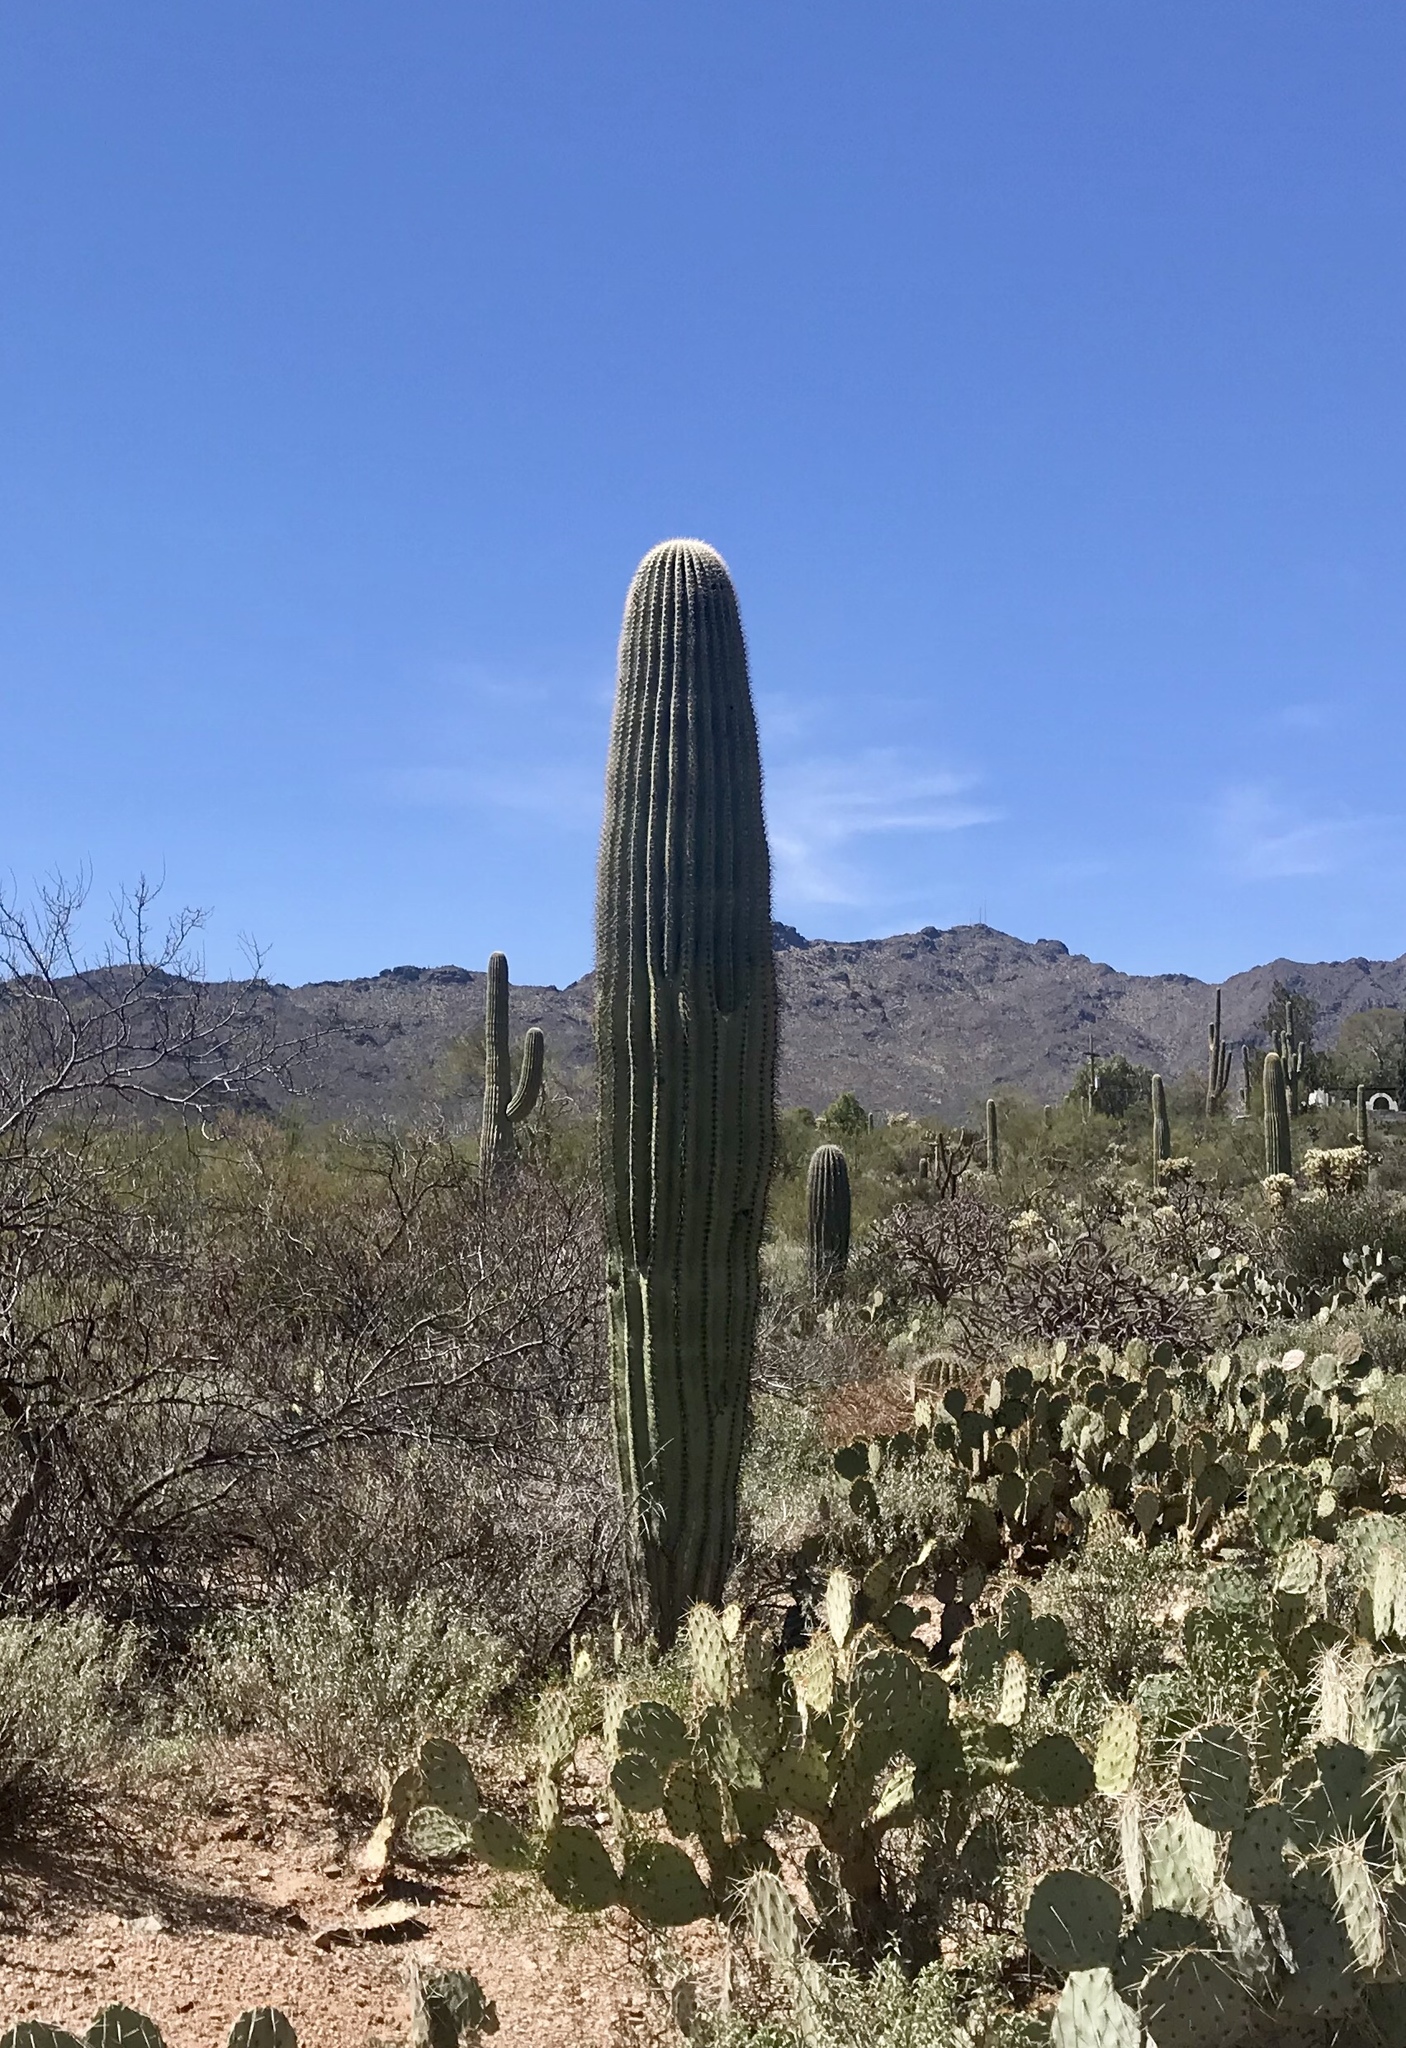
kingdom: Plantae
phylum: Tracheophyta
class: Magnoliopsida
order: Caryophyllales
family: Cactaceae
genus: Carnegiea
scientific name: Carnegiea gigantea
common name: Saguaro
